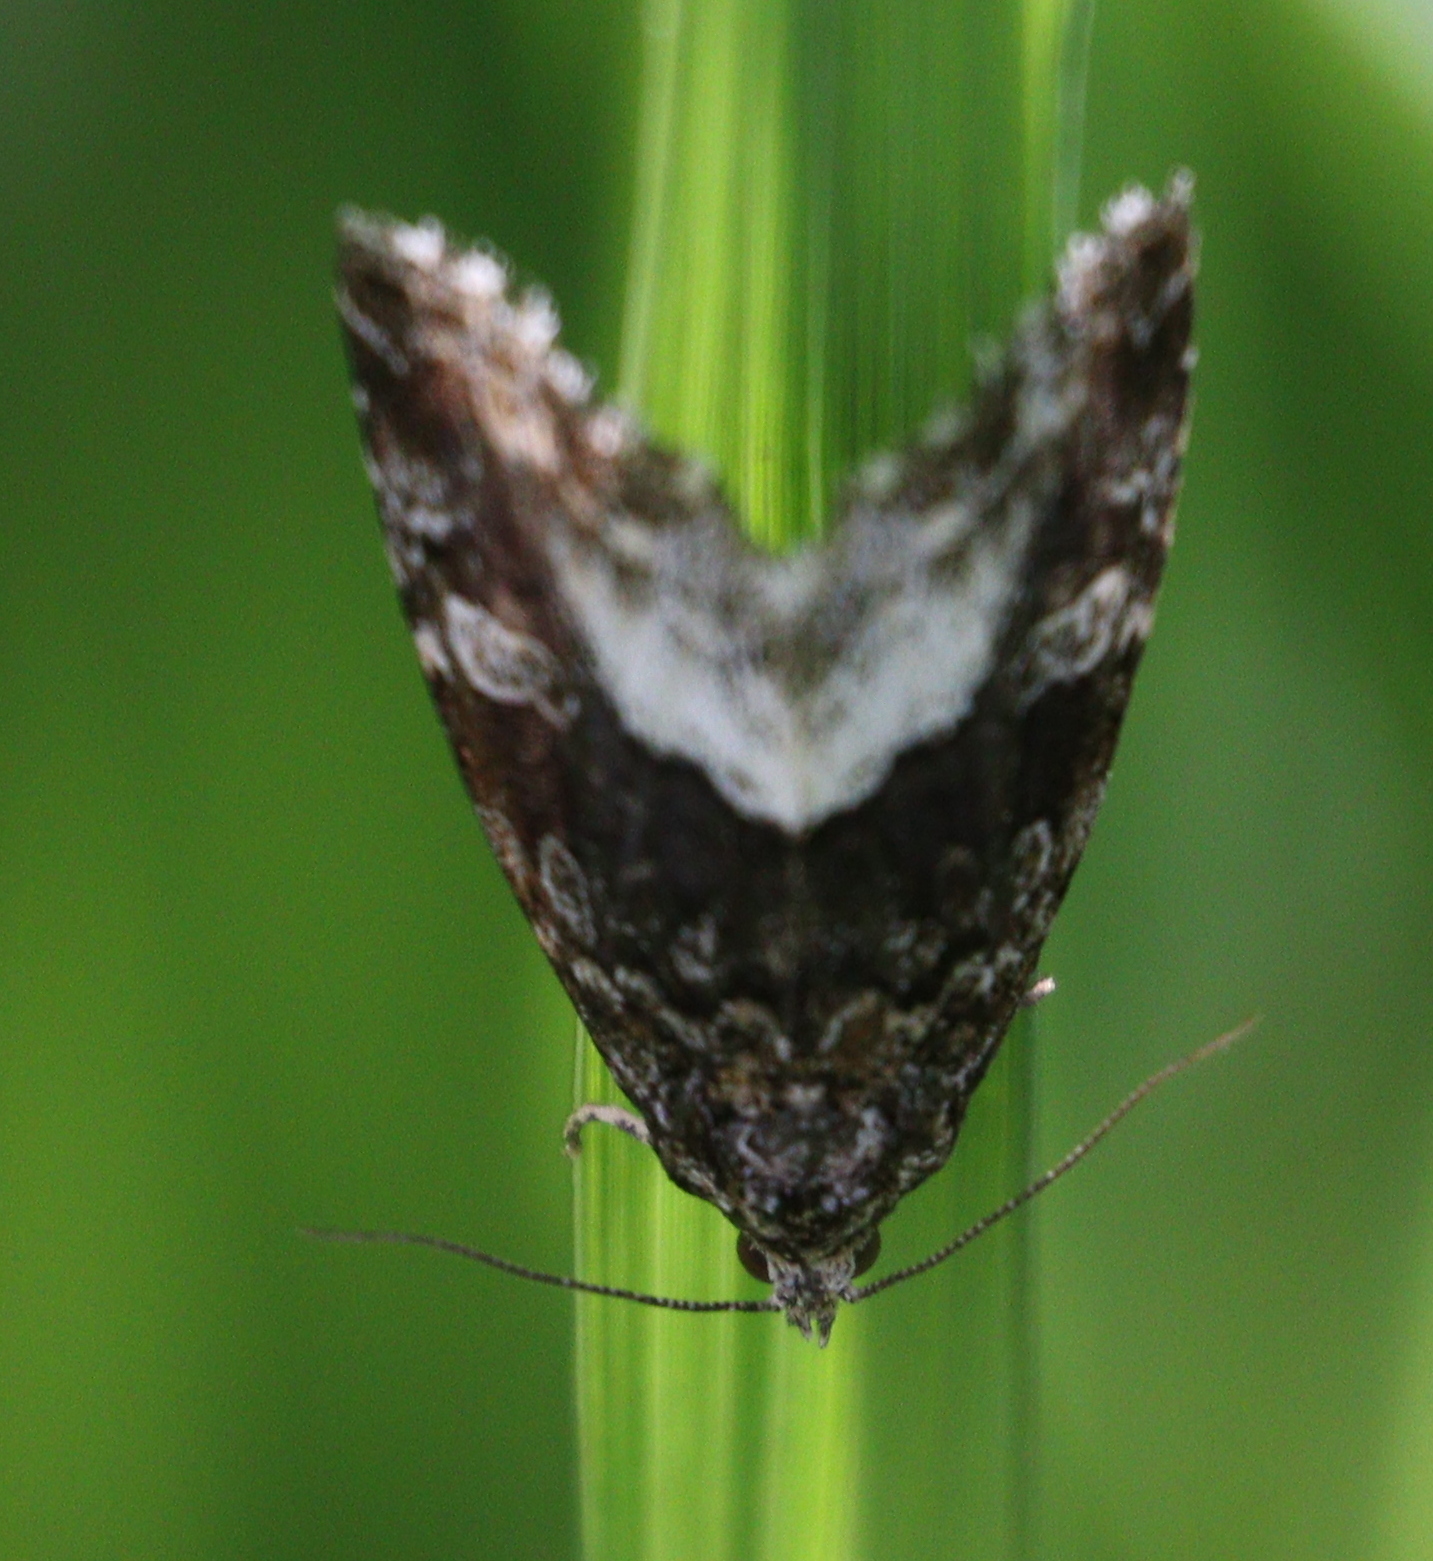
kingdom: Animalia
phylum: Arthropoda
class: Insecta
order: Lepidoptera
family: Noctuidae
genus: Deltote
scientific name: Deltote pygarga
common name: Marbled white spot
